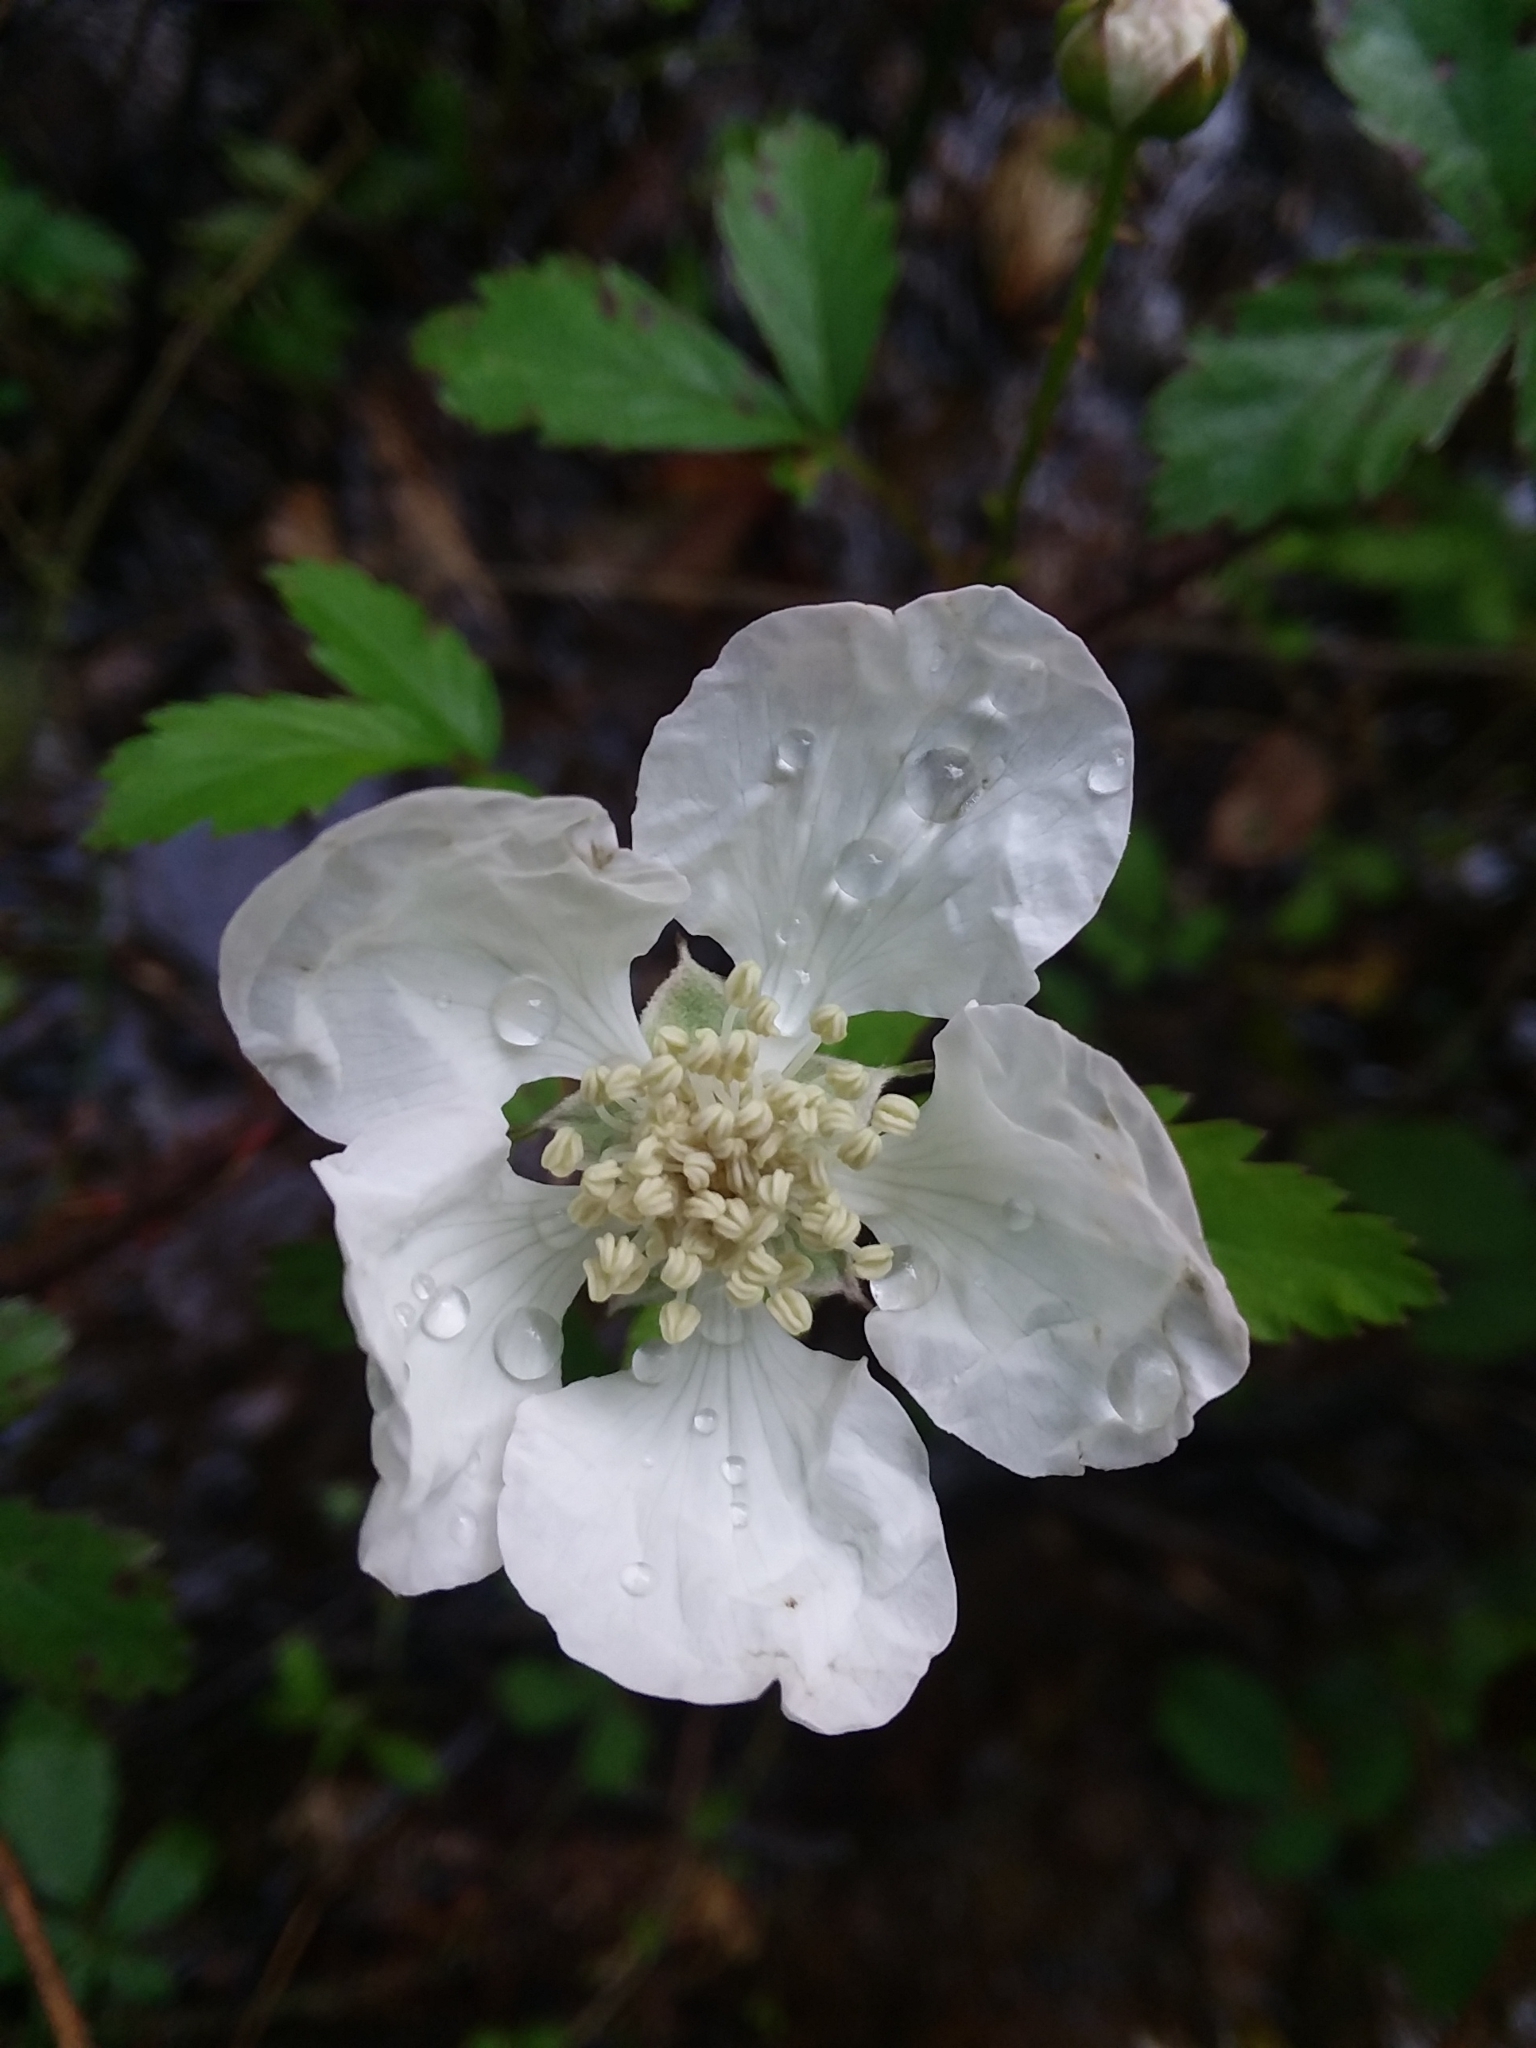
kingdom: Plantae
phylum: Tracheophyta
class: Magnoliopsida
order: Rosales
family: Rosaceae
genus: Rubus
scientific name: Rubus trivialis
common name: Southern dewberry
